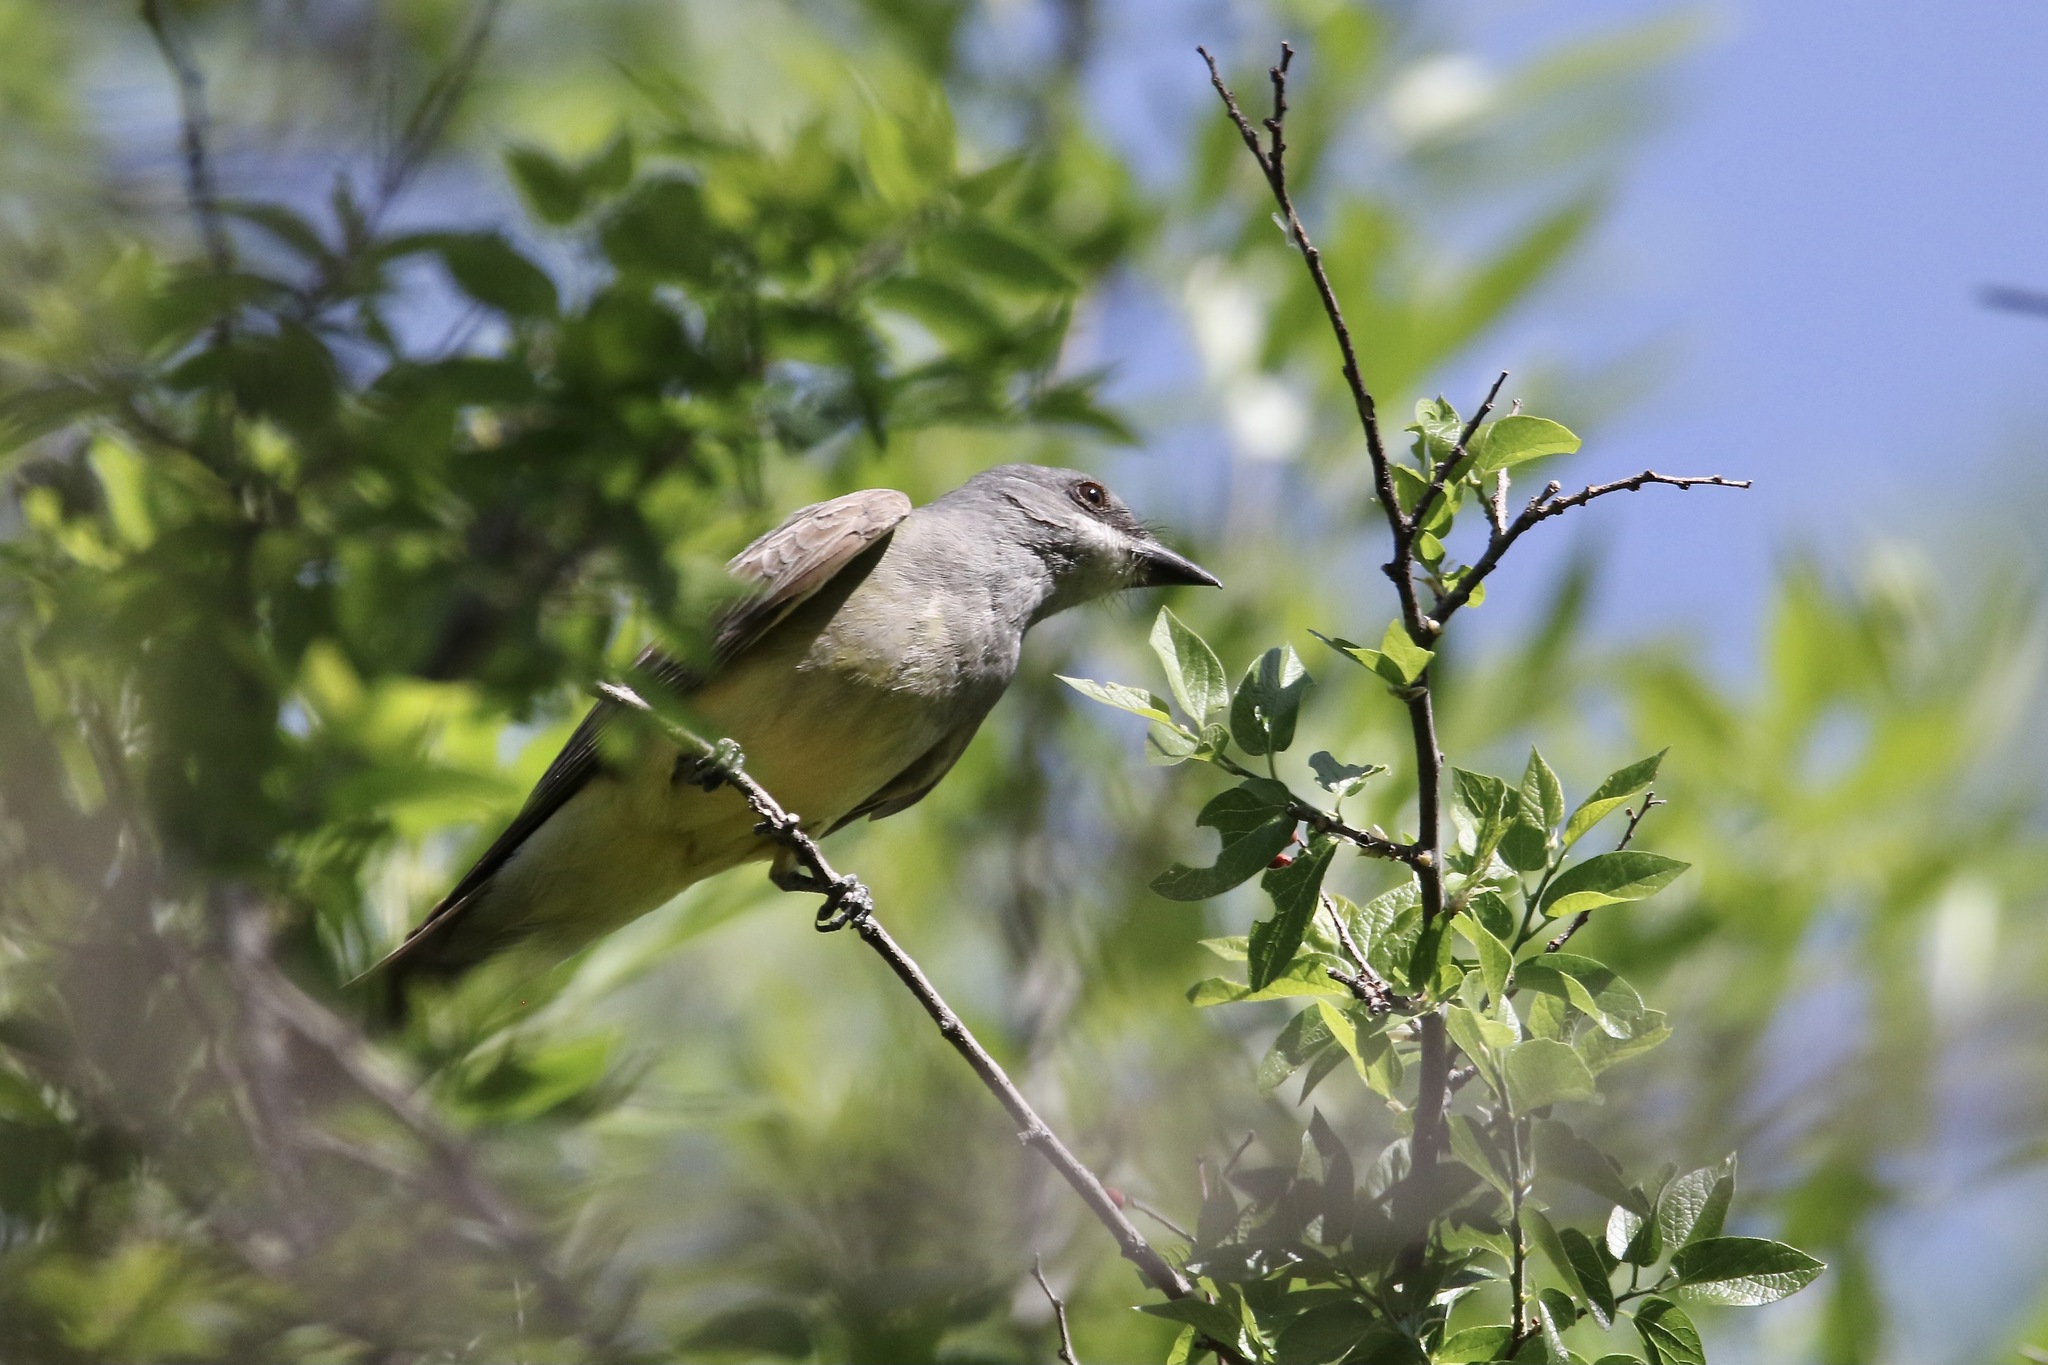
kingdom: Animalia
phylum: Chordata
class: Aves
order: Passeriformes
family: Tyrannidae
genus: Tyrannus
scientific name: Tyrannus vociferans
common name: Cassin's kingbird
